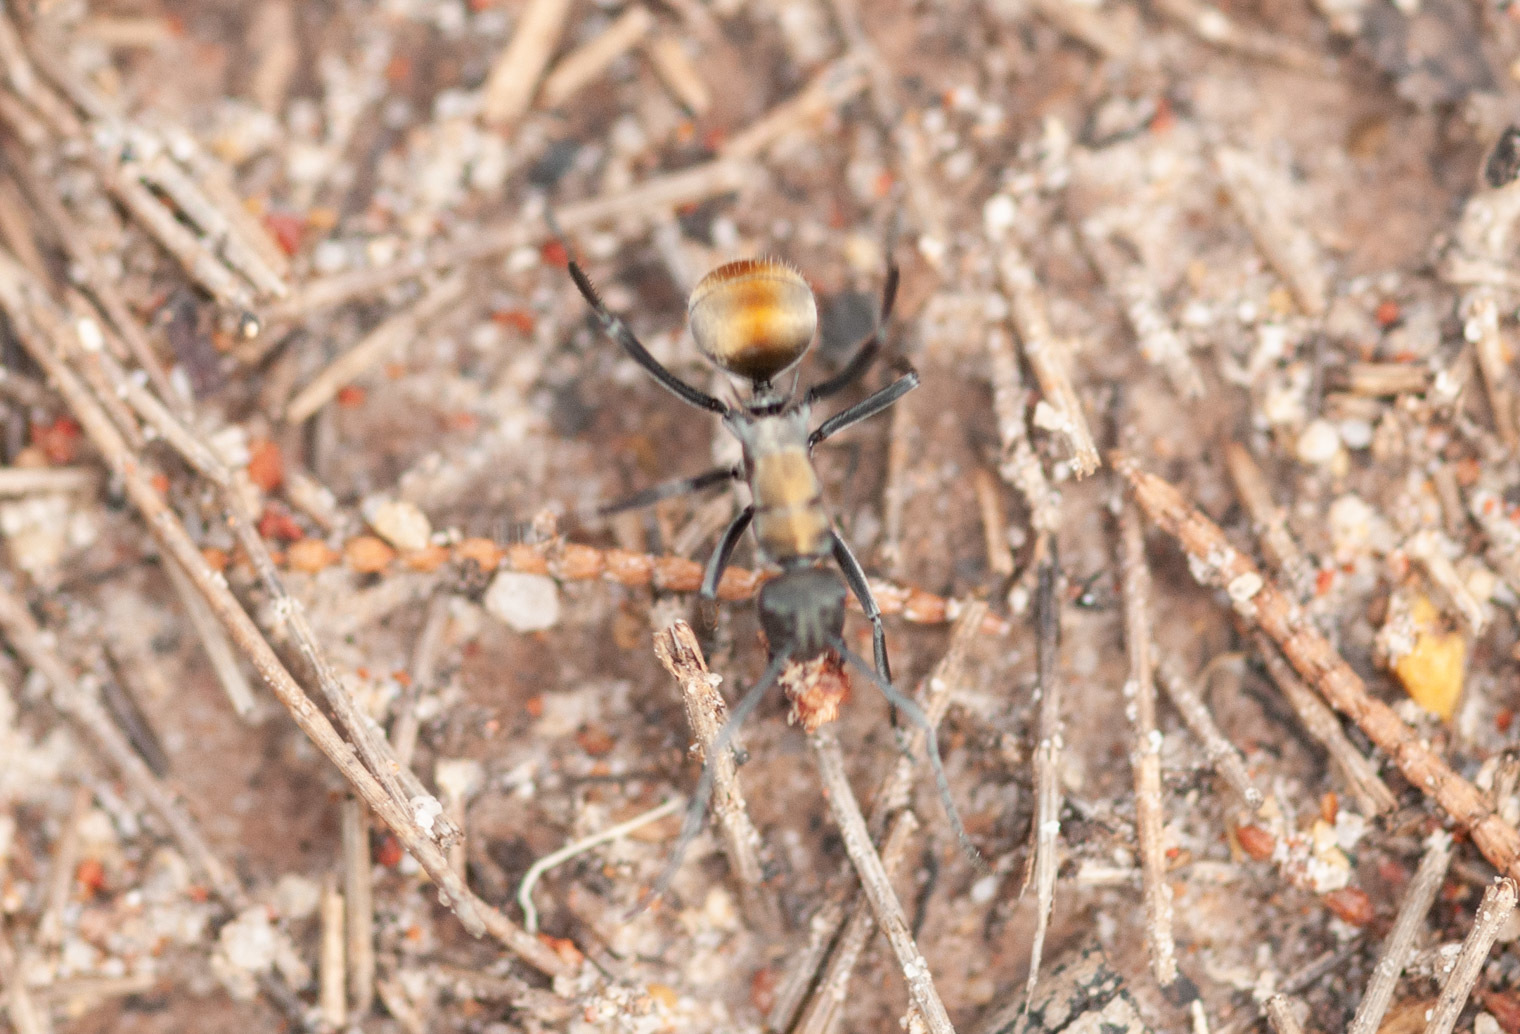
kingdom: Animalia
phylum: Arthropoda
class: Insecta
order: Hymenoptera
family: Formicidae
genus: Polyrhachis
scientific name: Polyrhachis ammon
